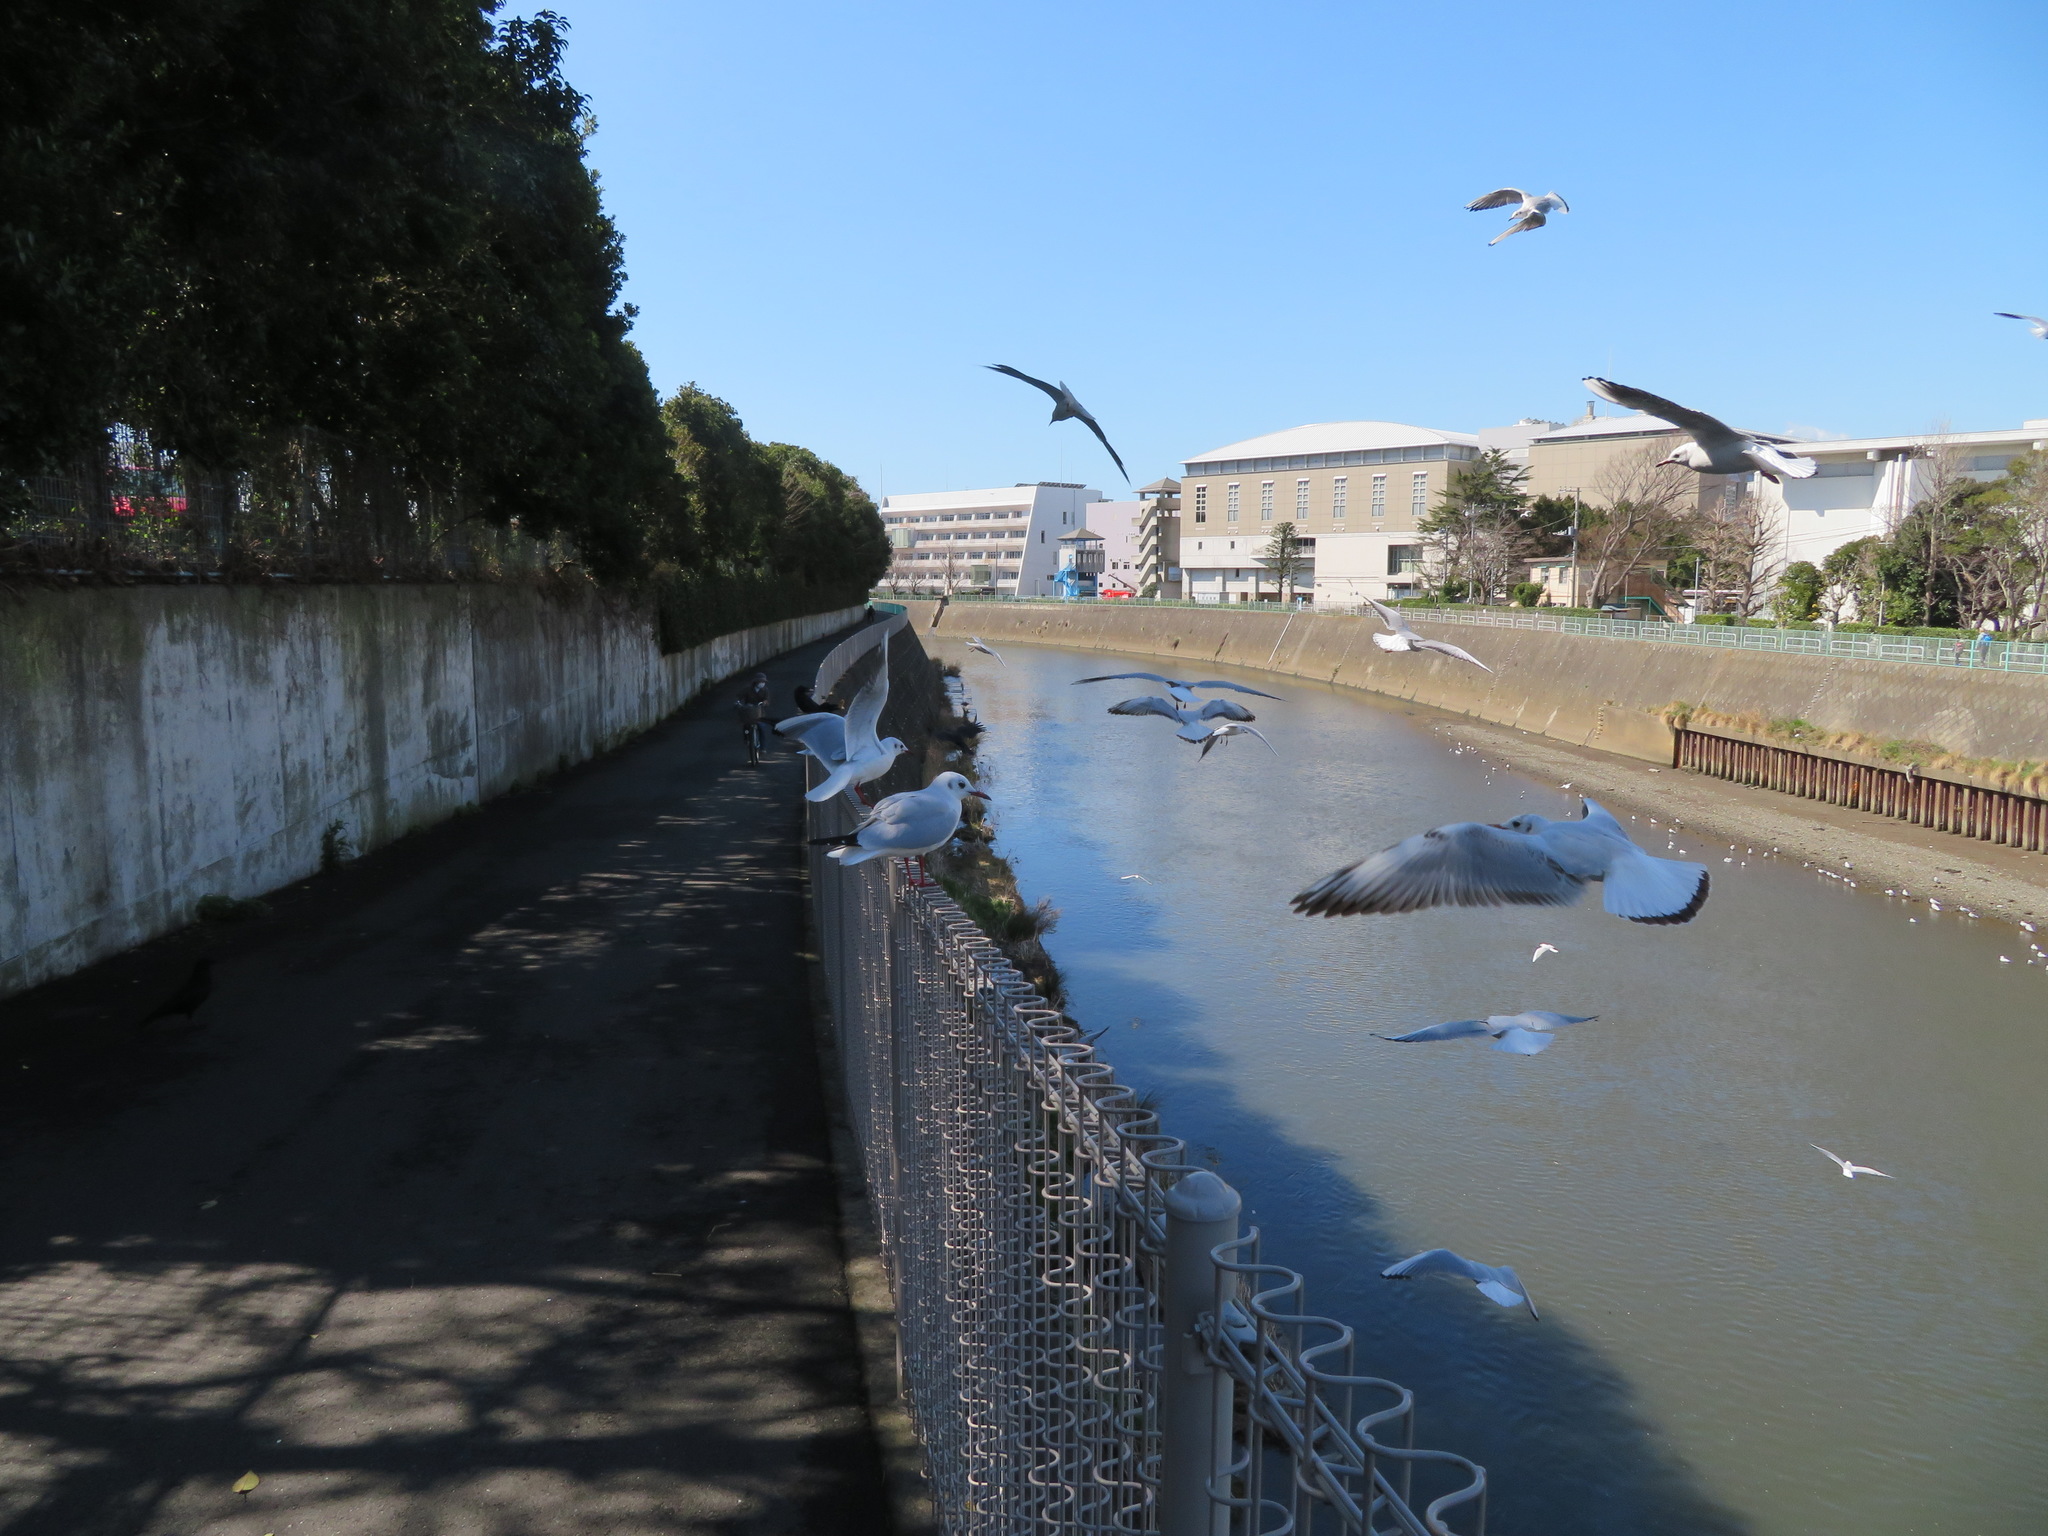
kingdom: Animalia
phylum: Chordata
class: Aves
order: Charadriiformes
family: Laridae
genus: Chroicocephalus
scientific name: Chroicocephalus ridibundus
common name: Black-headed gull
